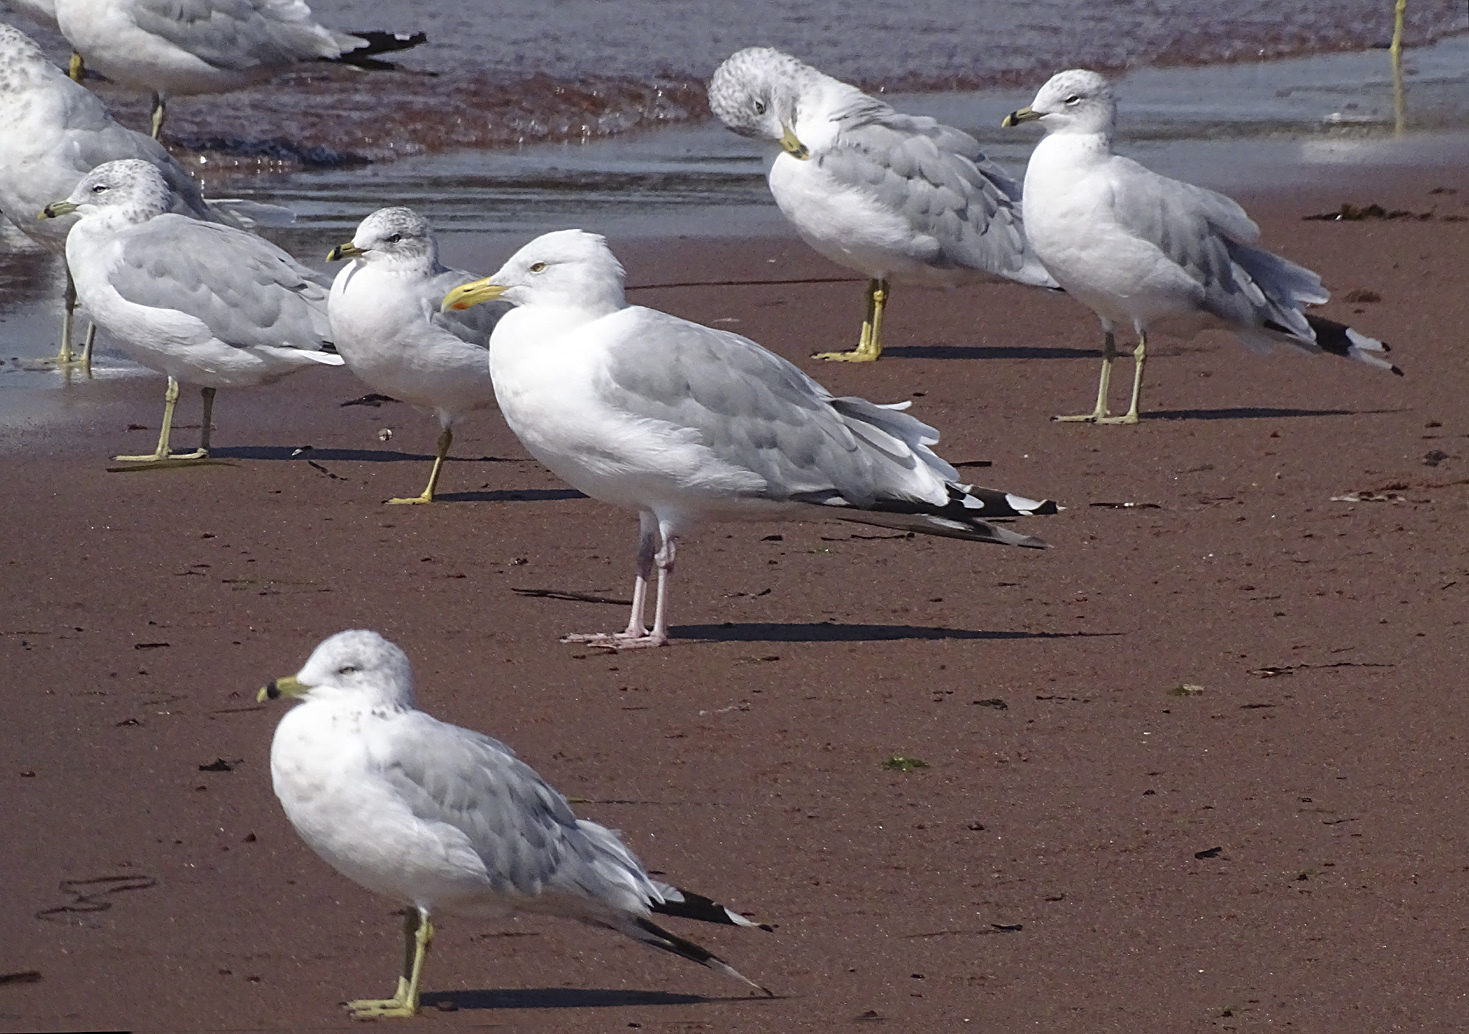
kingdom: Animalia
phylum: Chordata
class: Aves
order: Charadriiformes
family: Laridae
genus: Larus
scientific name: Larus argentatus
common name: Herring gull
